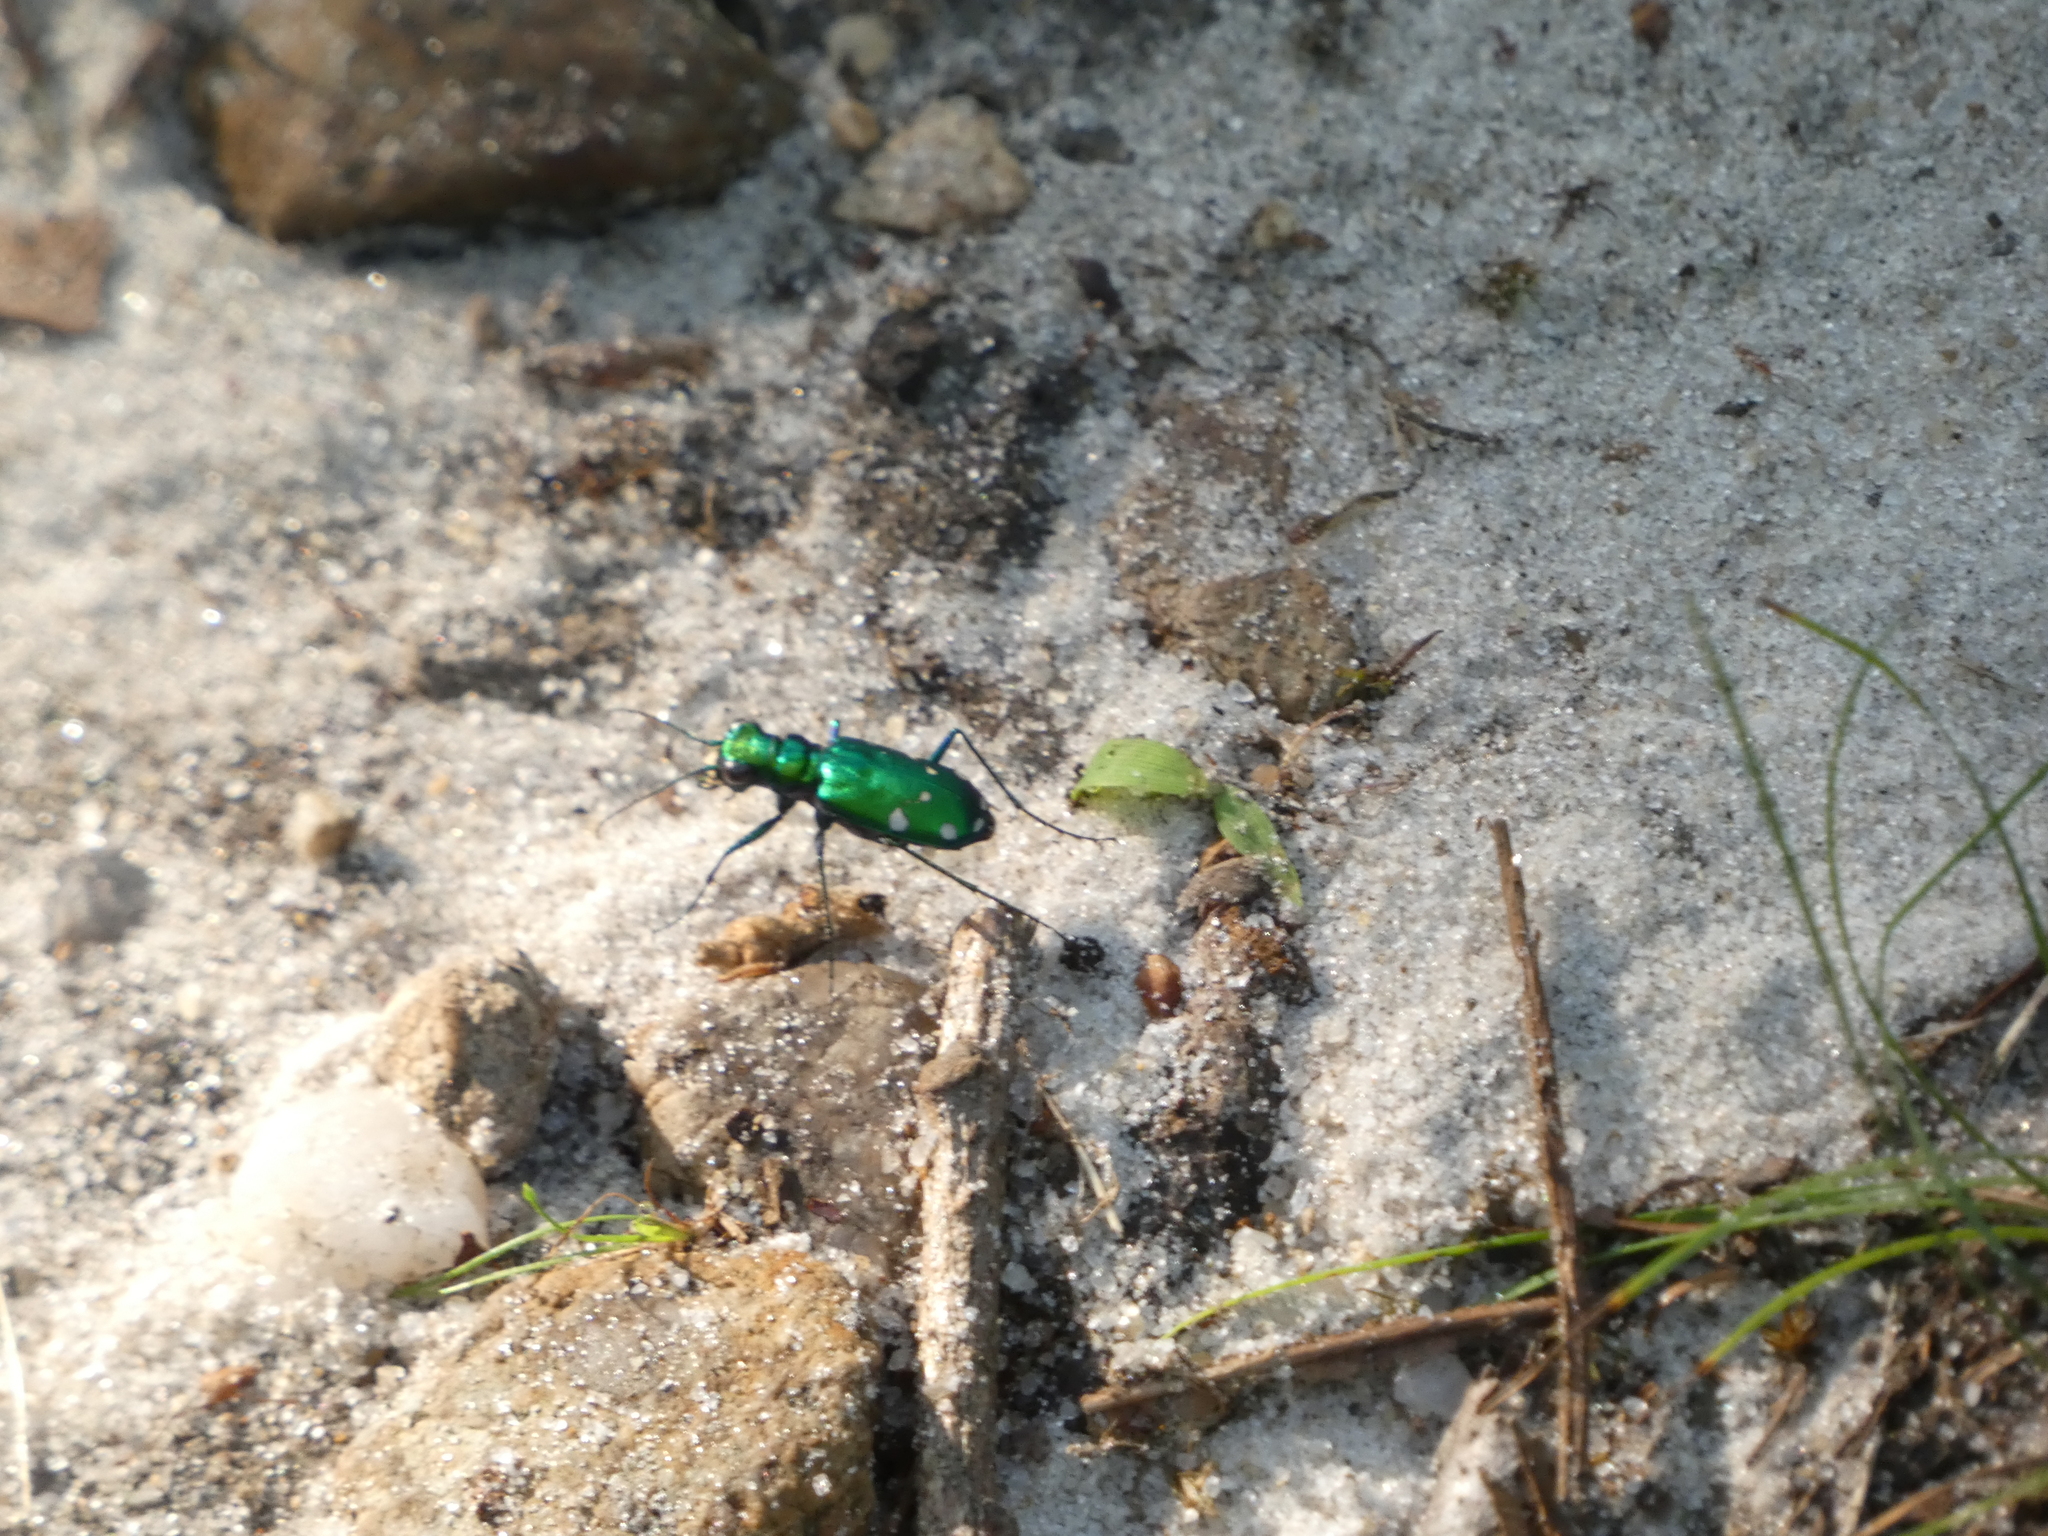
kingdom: Animalia
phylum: Arthropoda
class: Insecta
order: Coleoptera
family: Carabidae
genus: Cicindela
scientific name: Cicindela sexguttata
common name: Six-spotted tiger beetle
